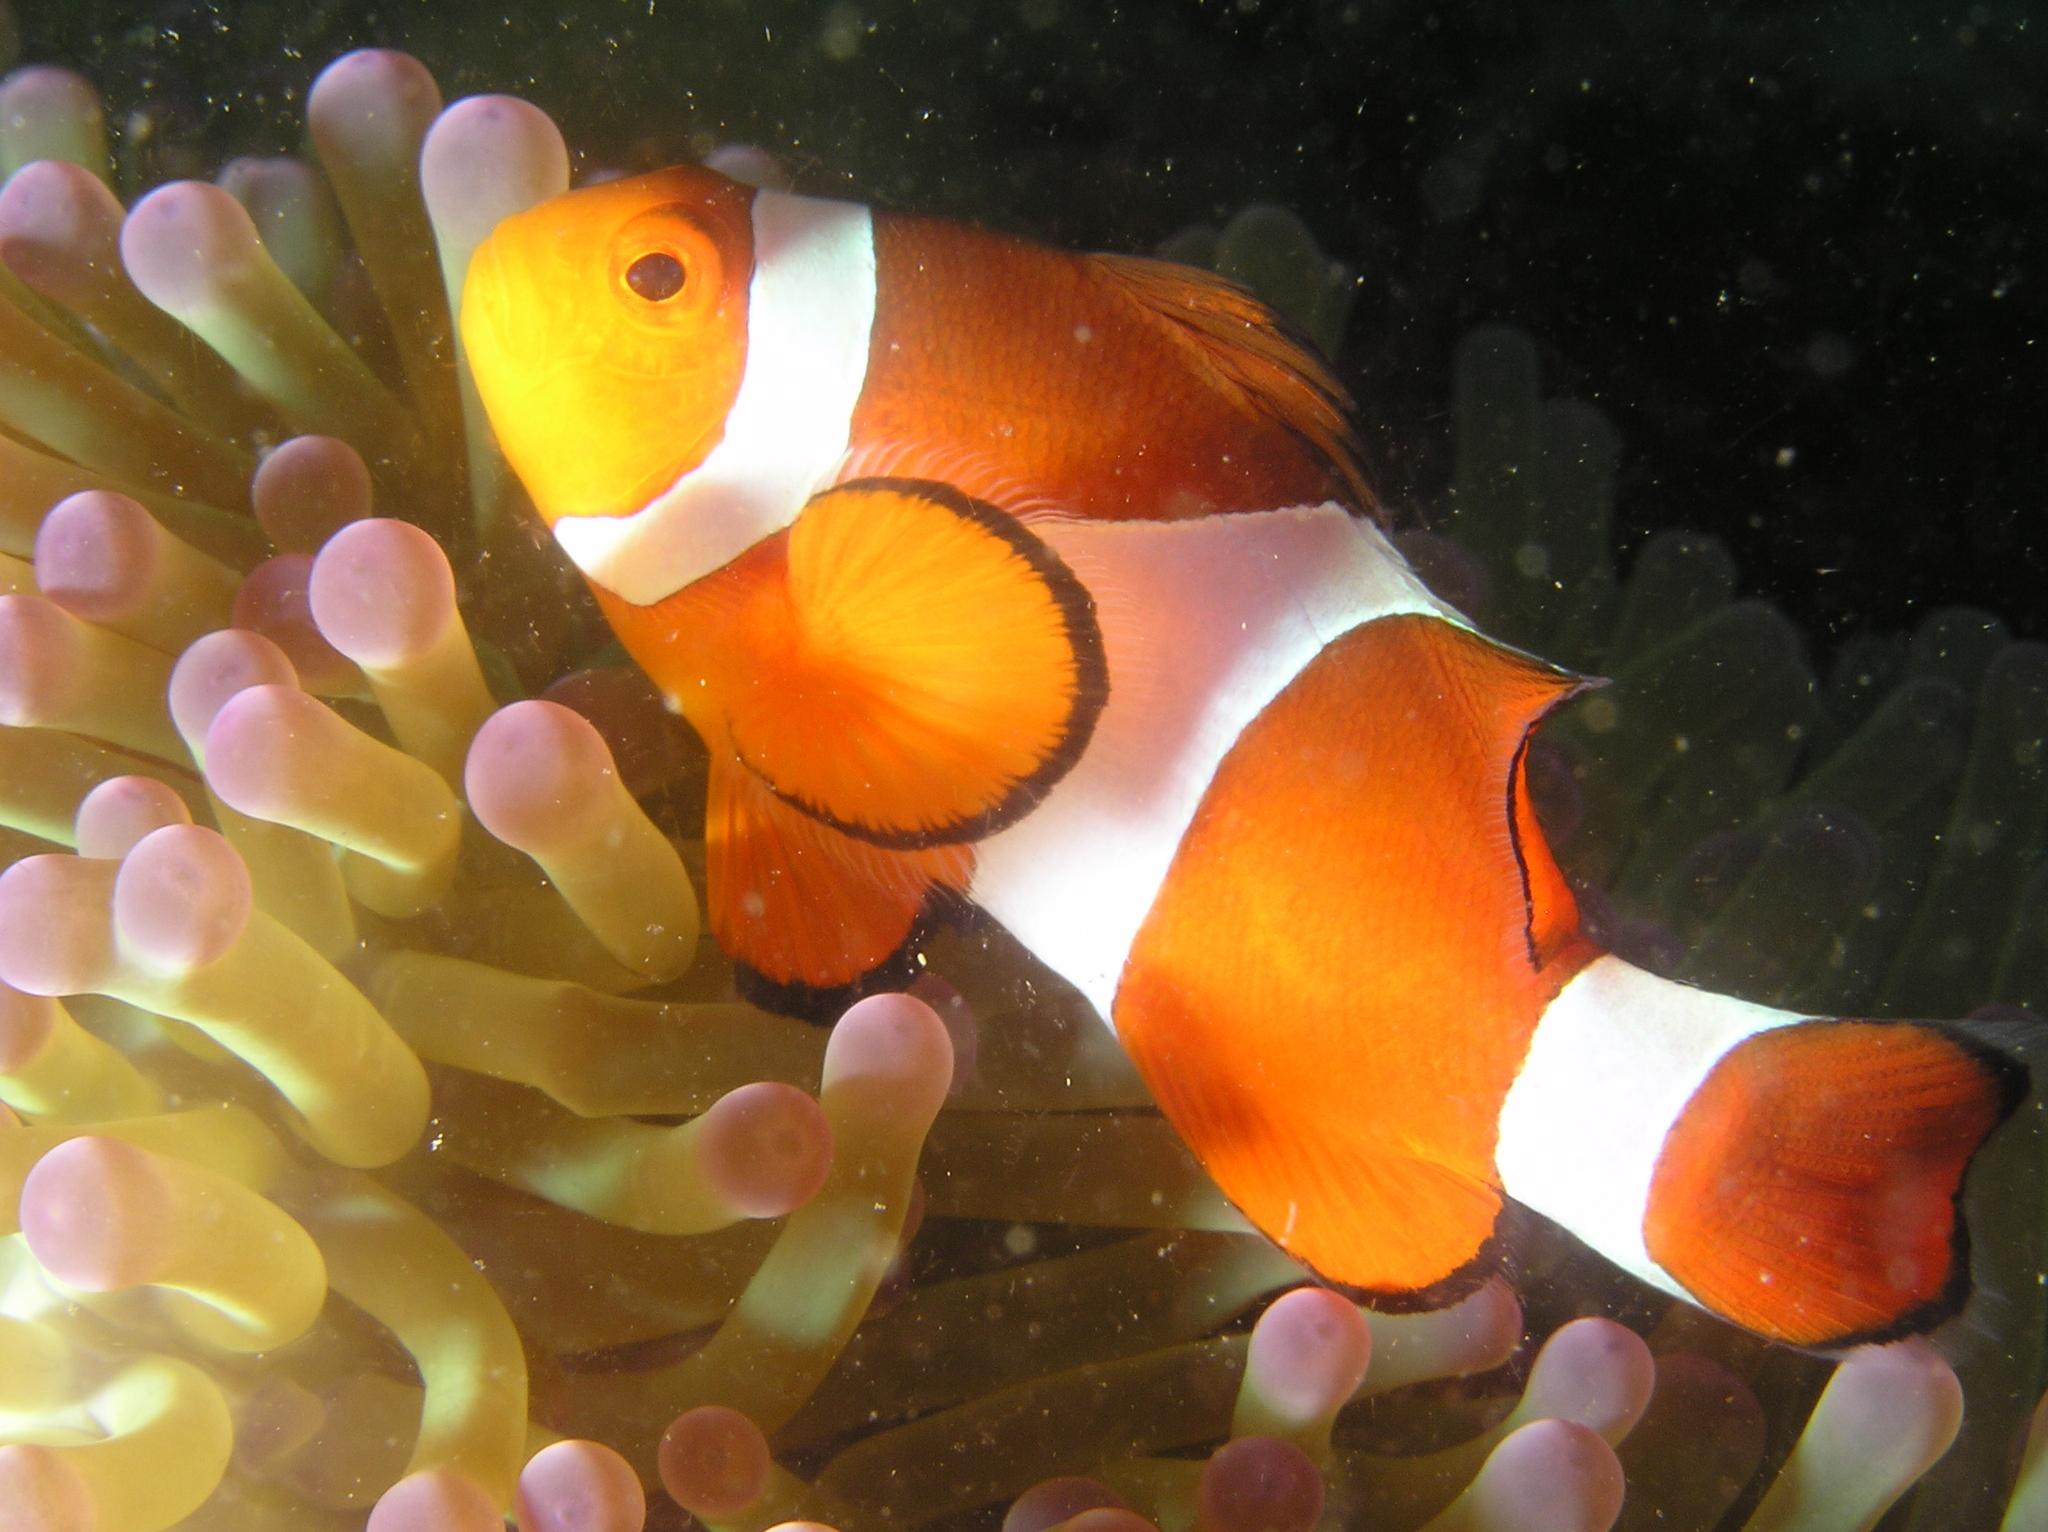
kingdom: Animalia
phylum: Chordata
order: Perciformes
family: Pomacentridae
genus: Amphiprion
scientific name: Amphiprion ocellaris
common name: Clown anemonefish
